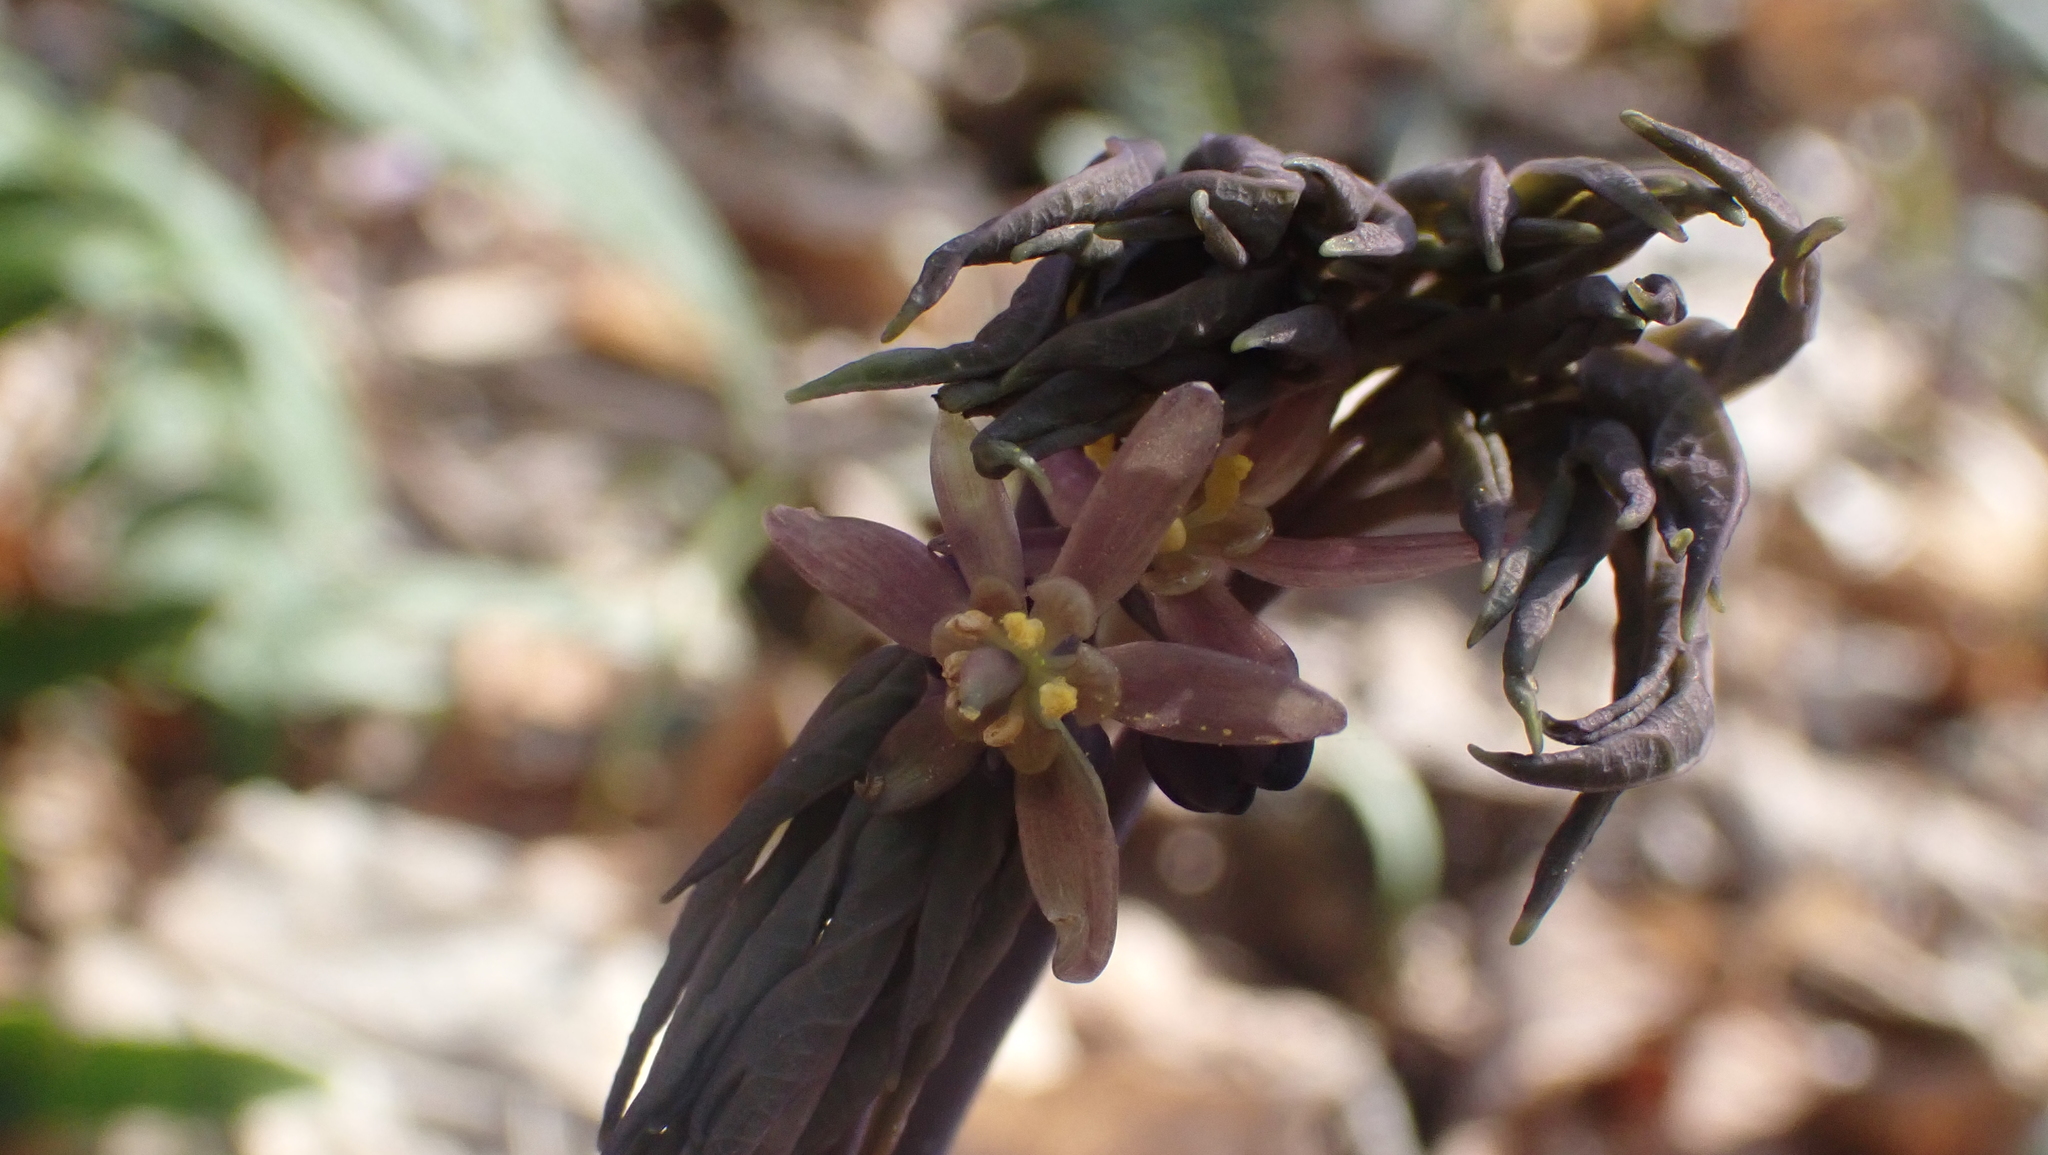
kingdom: Plantae
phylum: Tracheophyta
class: Magnoliopsida
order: Ranunculales
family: Berberidaceae
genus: Caulophyllum
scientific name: Caulophyllum giganteum
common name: Blue cohosh
